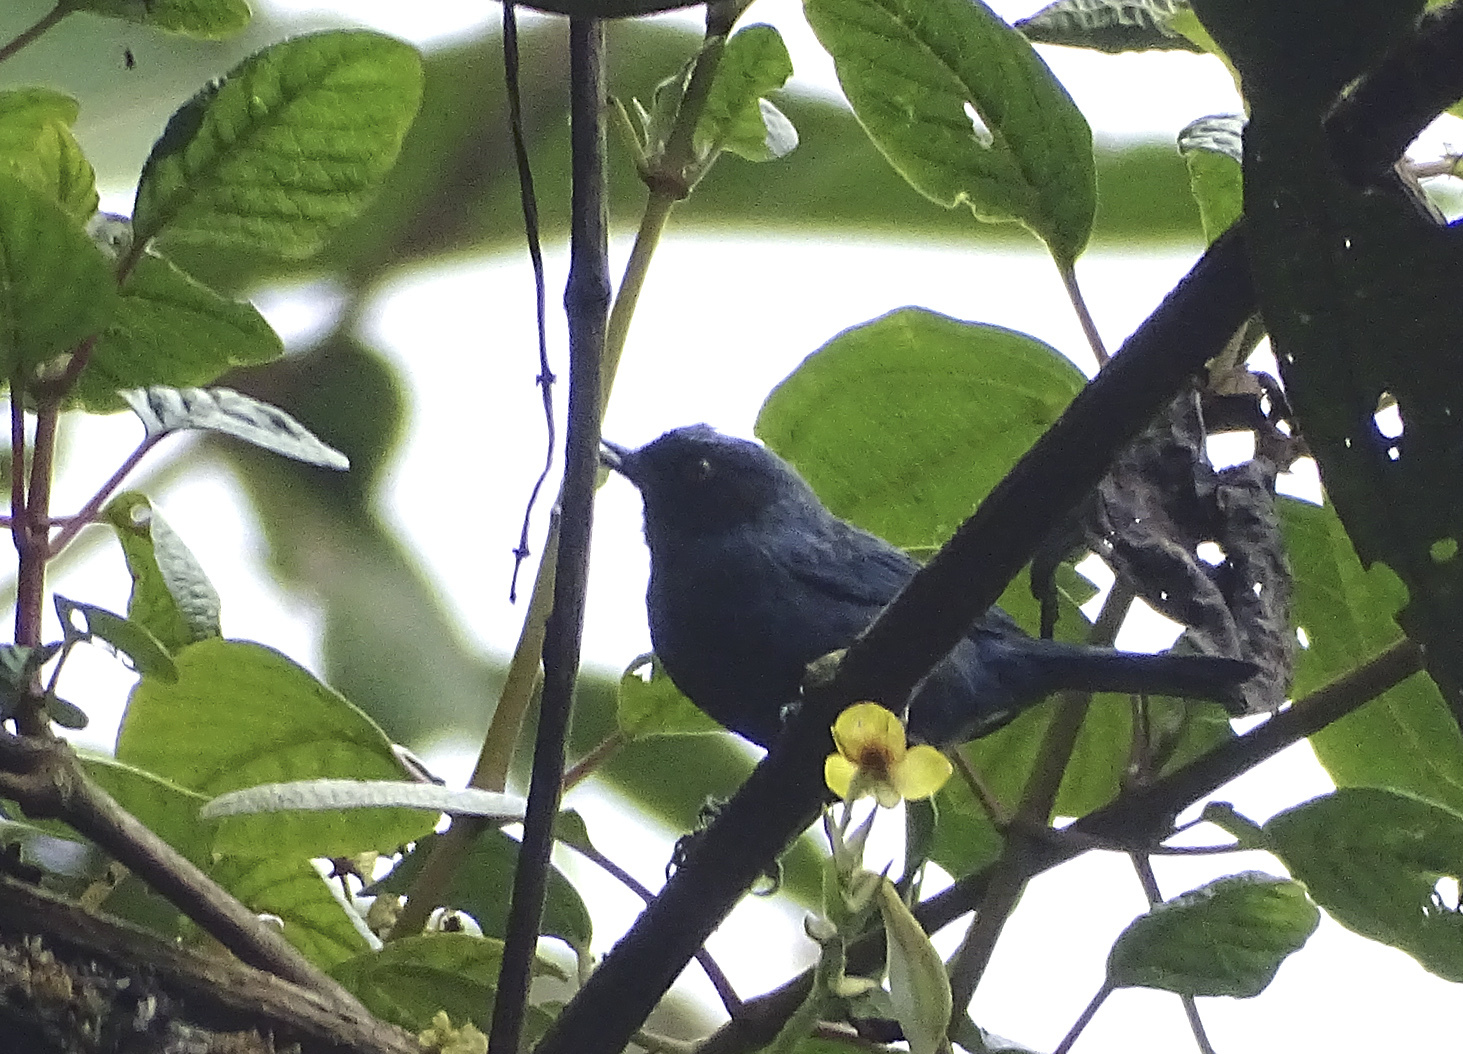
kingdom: Animalia
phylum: Chordata
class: Aves
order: Passeriformes
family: Thraupidae
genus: Diglossa
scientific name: Diglossa cyanea
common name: Masked flowerpiercer
